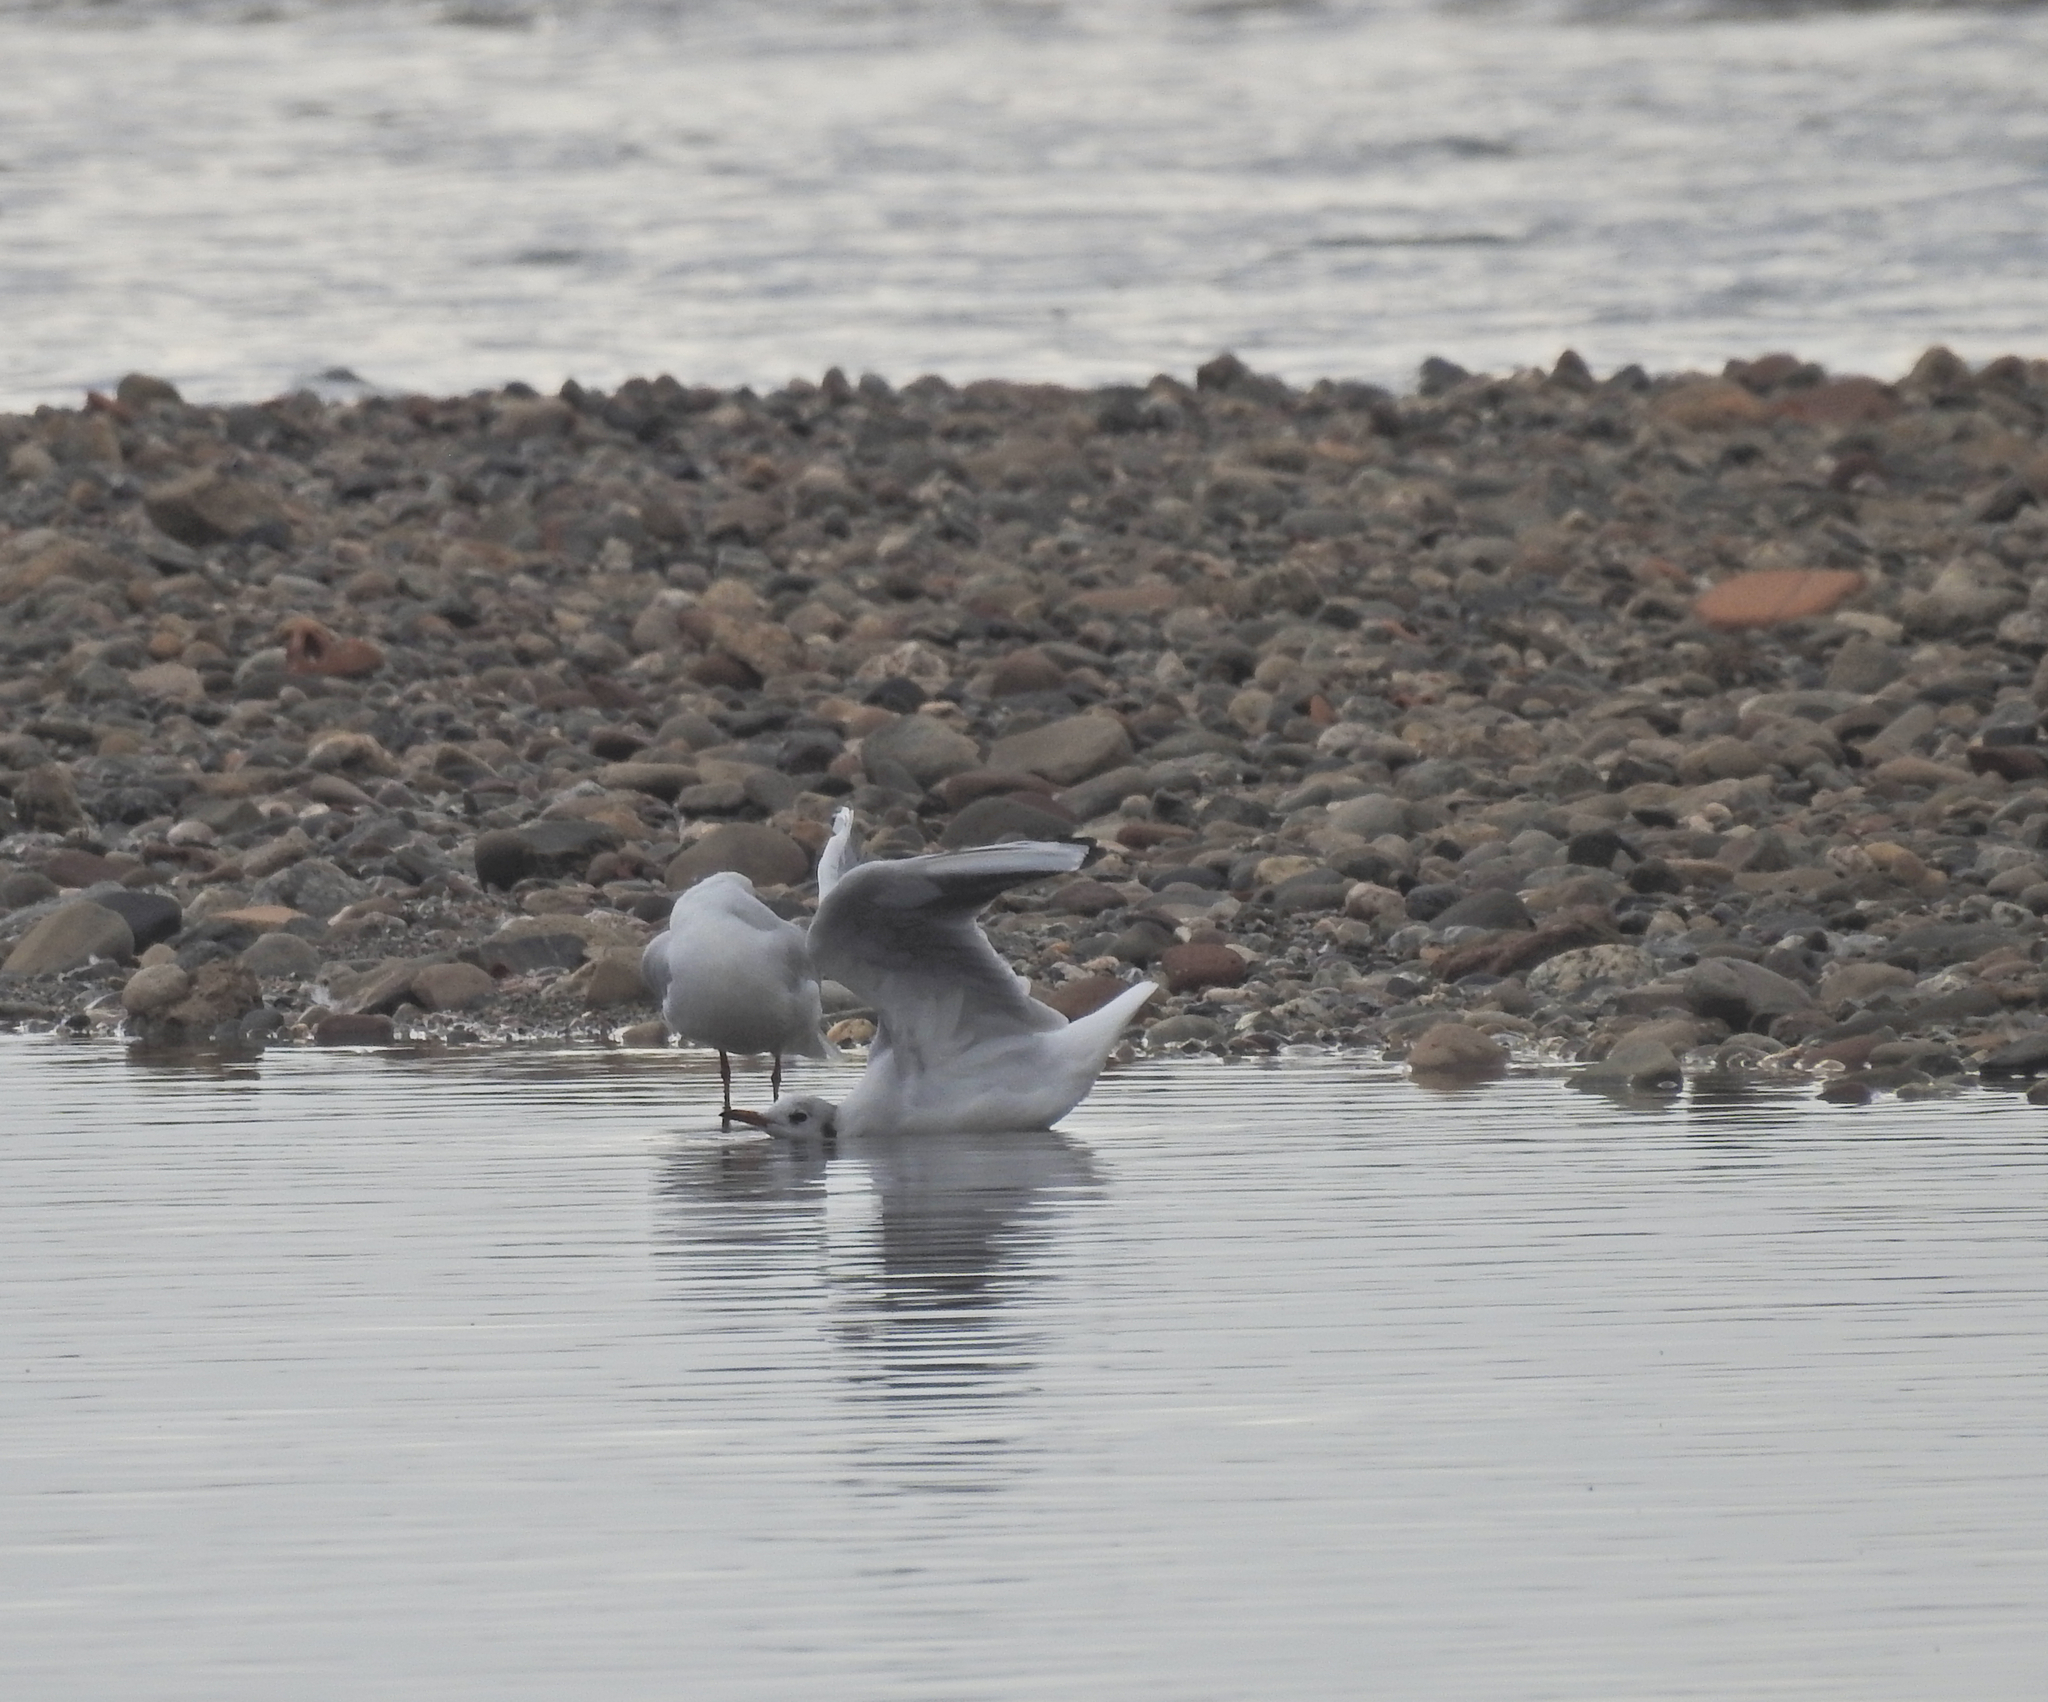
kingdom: Animalia
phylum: Chordata
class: Aves
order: Charadriiformes
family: Laridae
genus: Chroicocephalus
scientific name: Chroicocephalus ridibundus
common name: Black-headed gull
